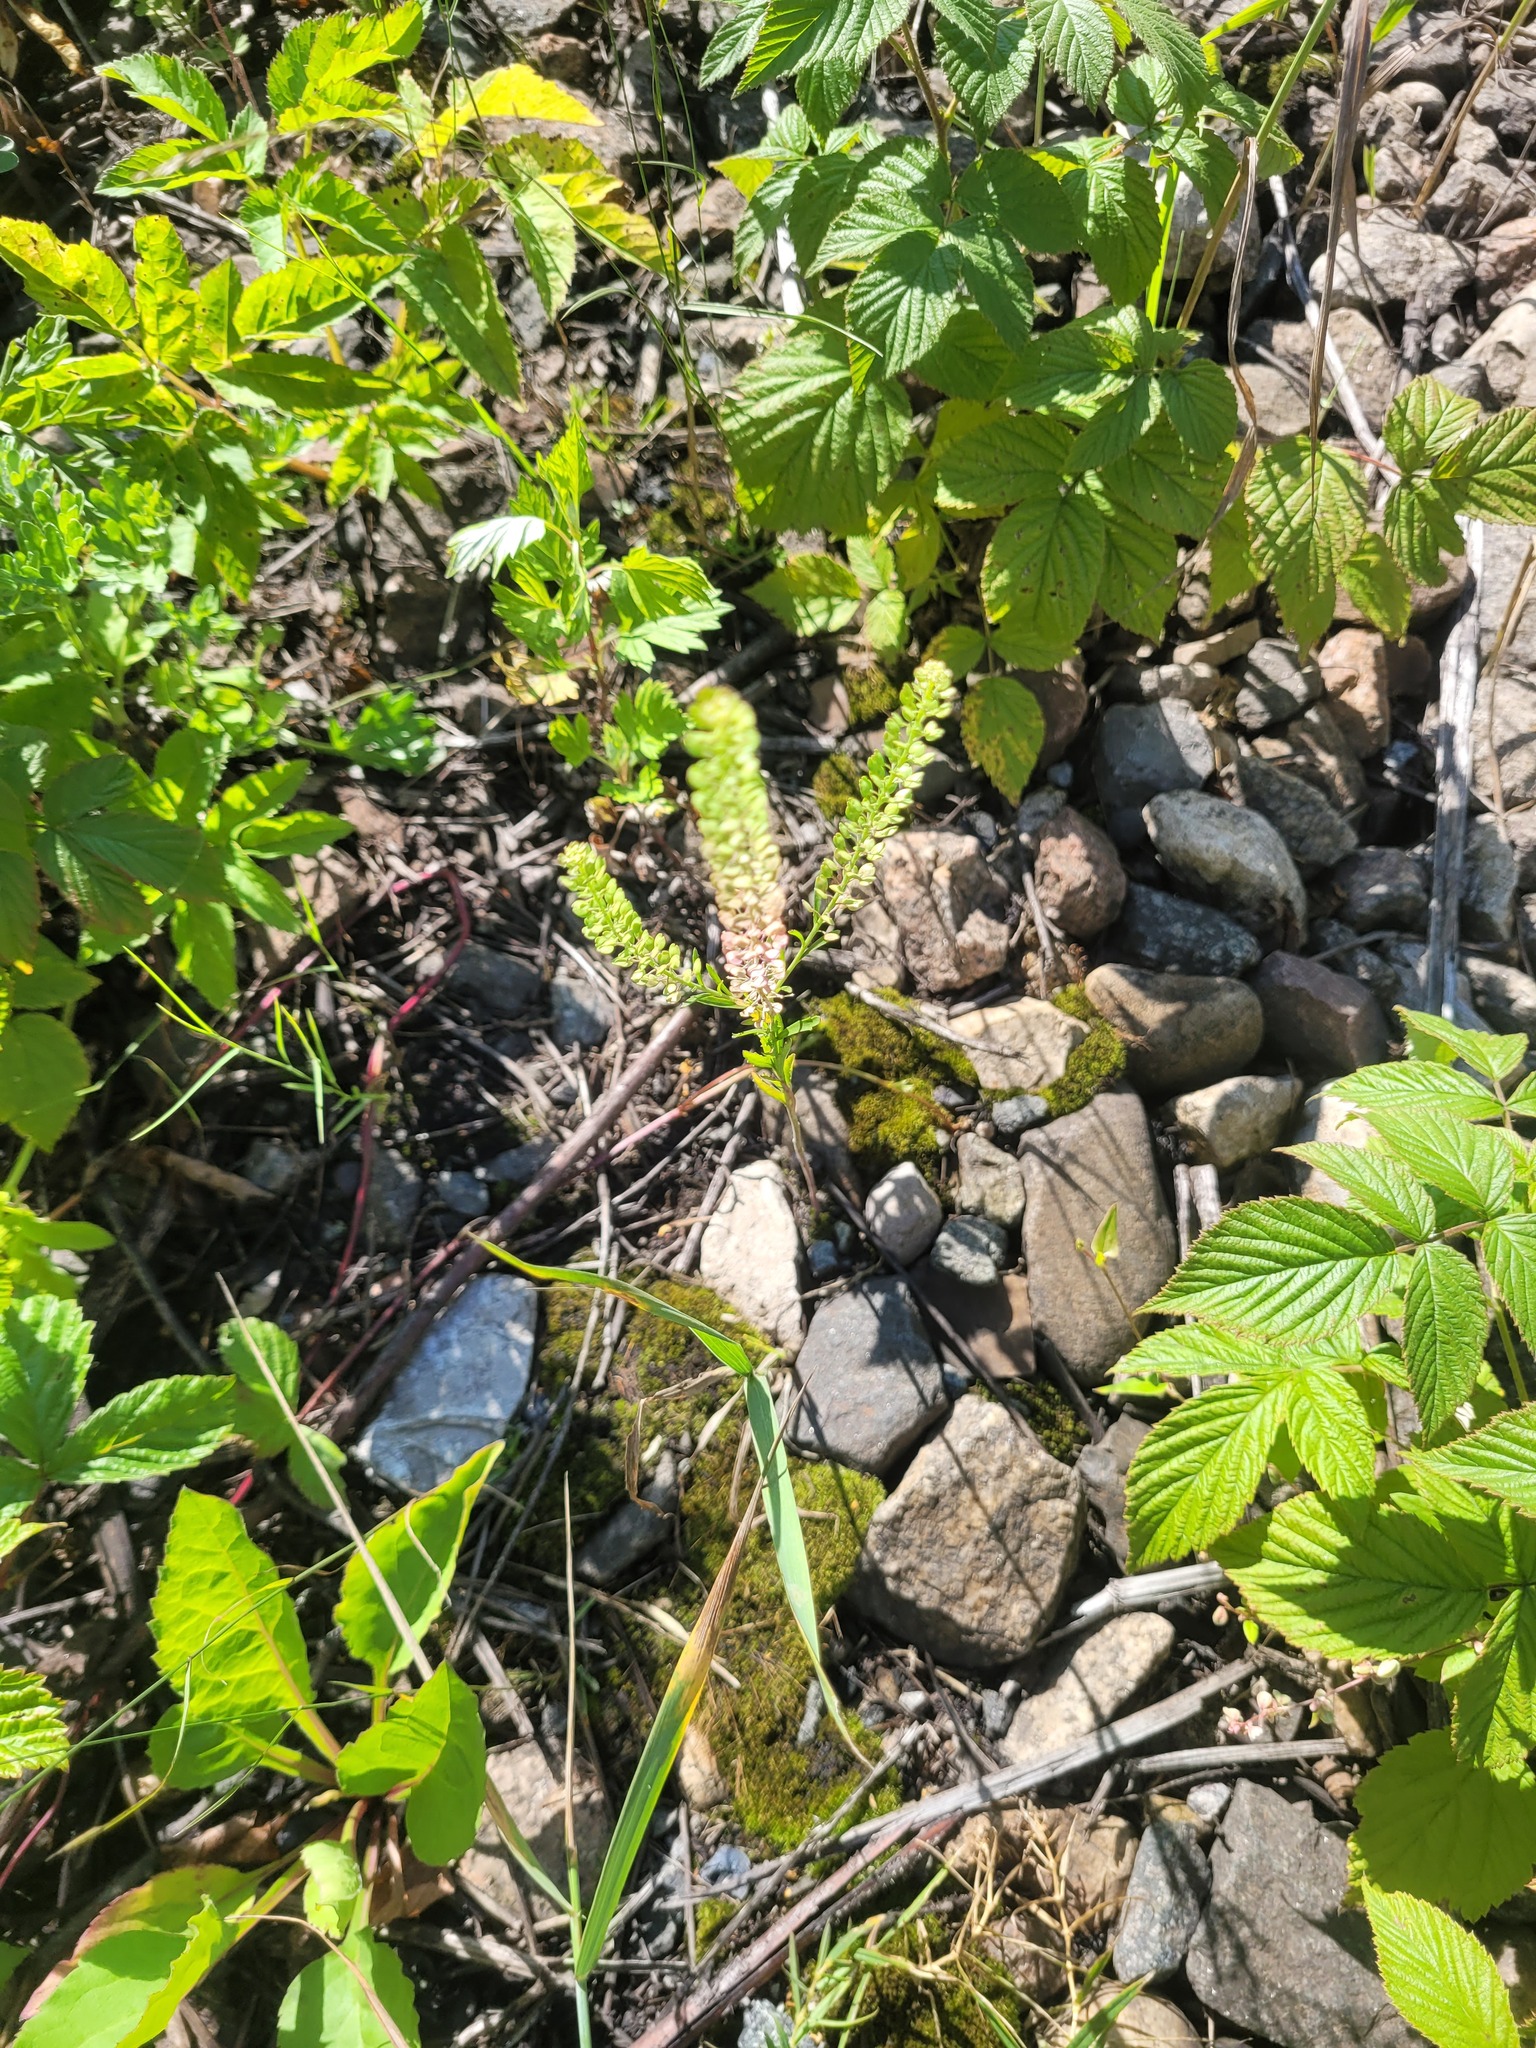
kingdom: Plantae
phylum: Tracheophyta
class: Magnoliopsida
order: Brassicales
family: Brassicaceae
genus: Lepidium
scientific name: Lepidium densiflorum
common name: Miner's pepperwort
